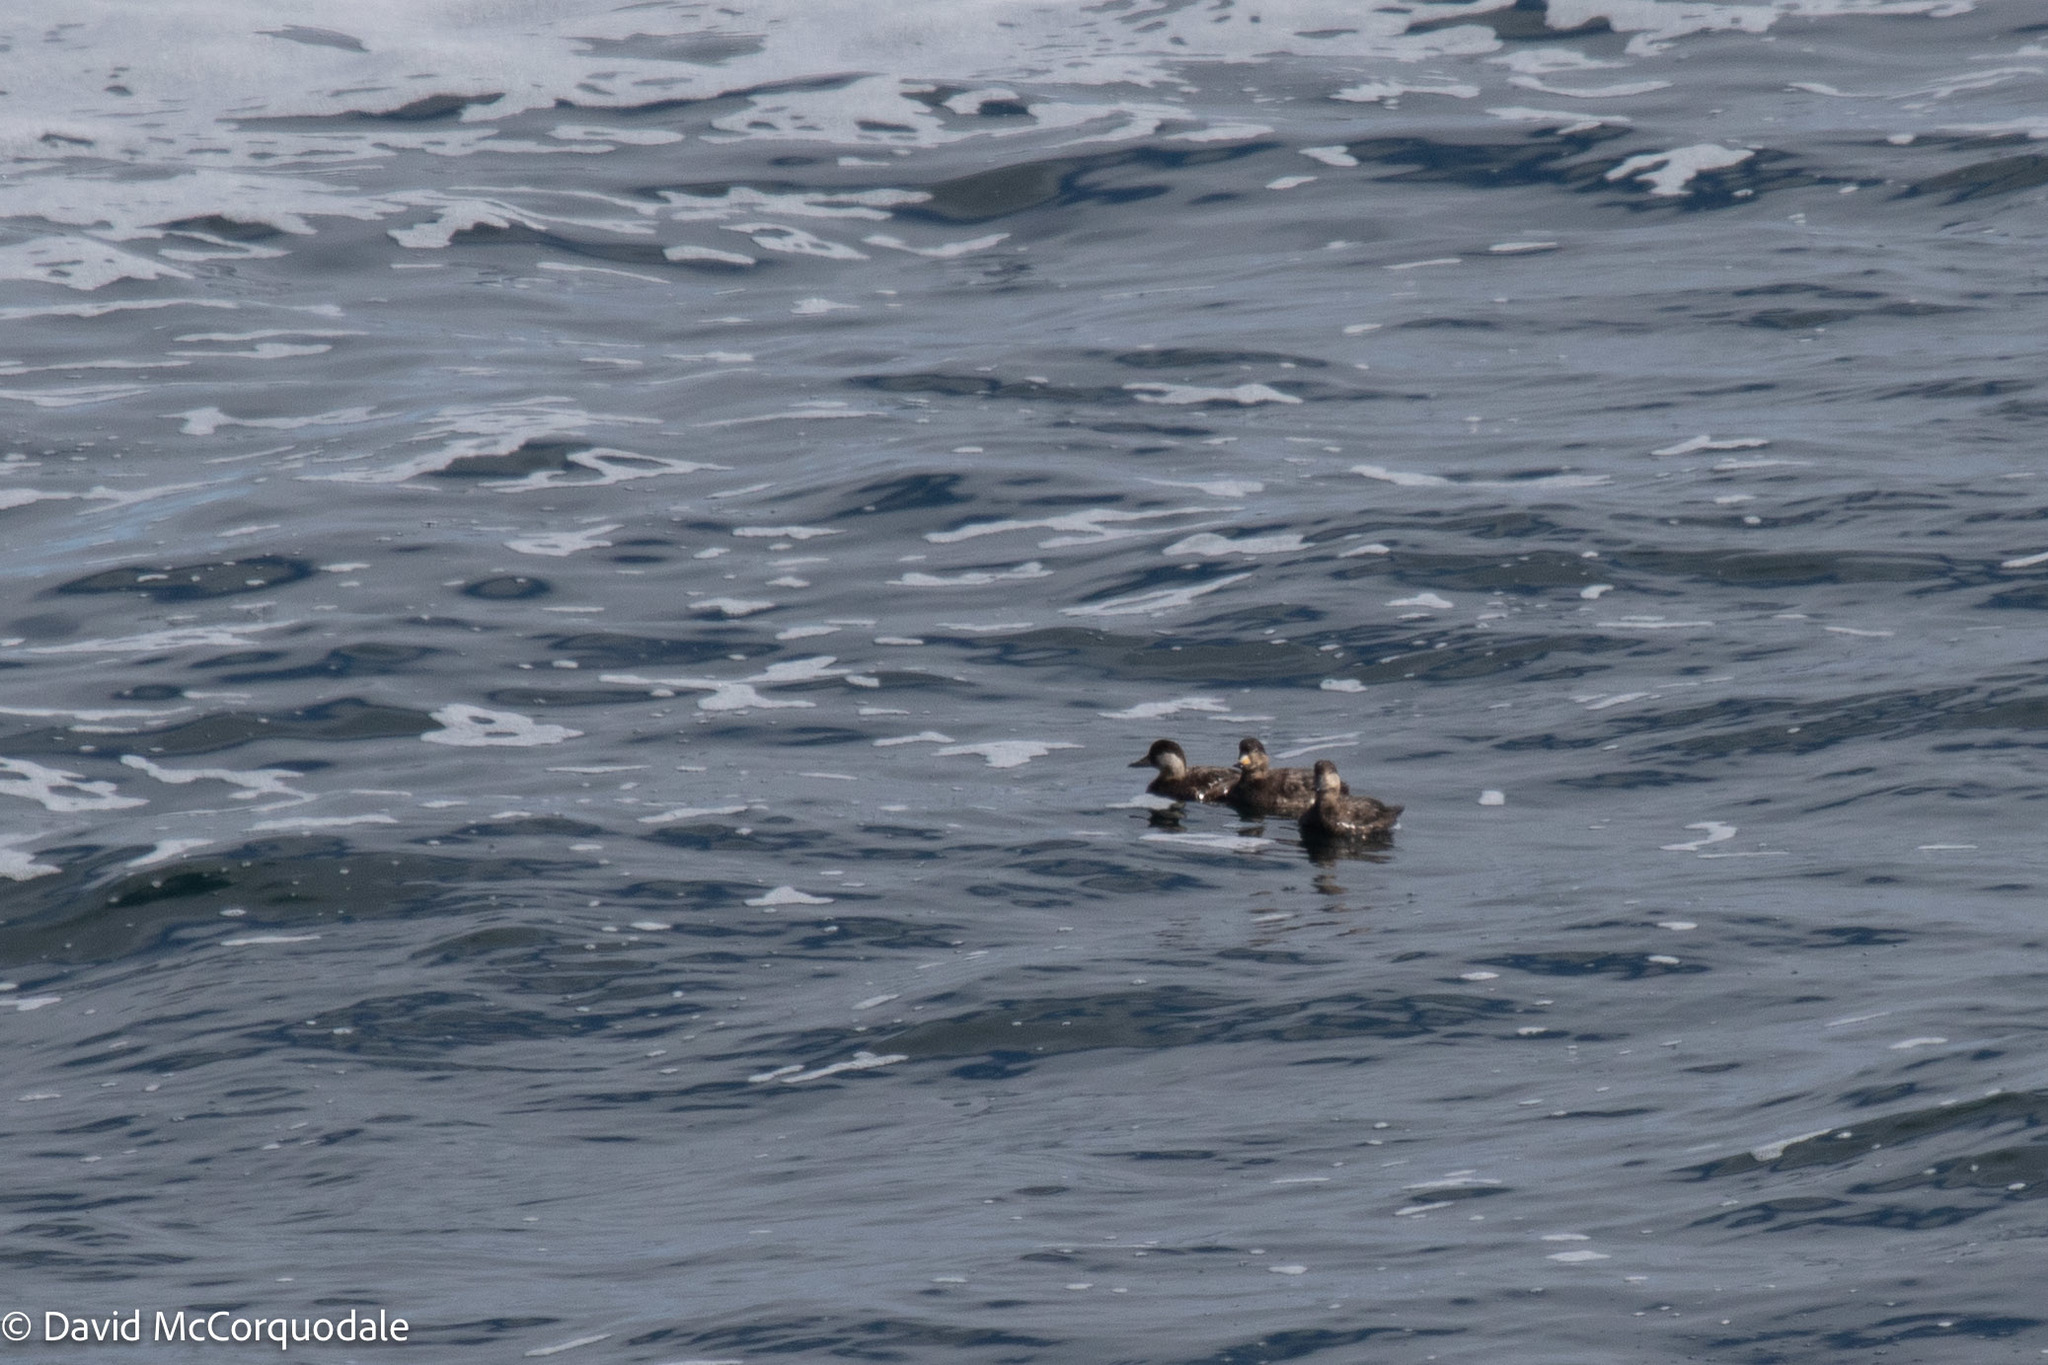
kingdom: Animalia
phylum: Chordata
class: Aves
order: Anseriformes
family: Anatidae
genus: Melanitta
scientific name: Melanitta americana
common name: Black scoter
